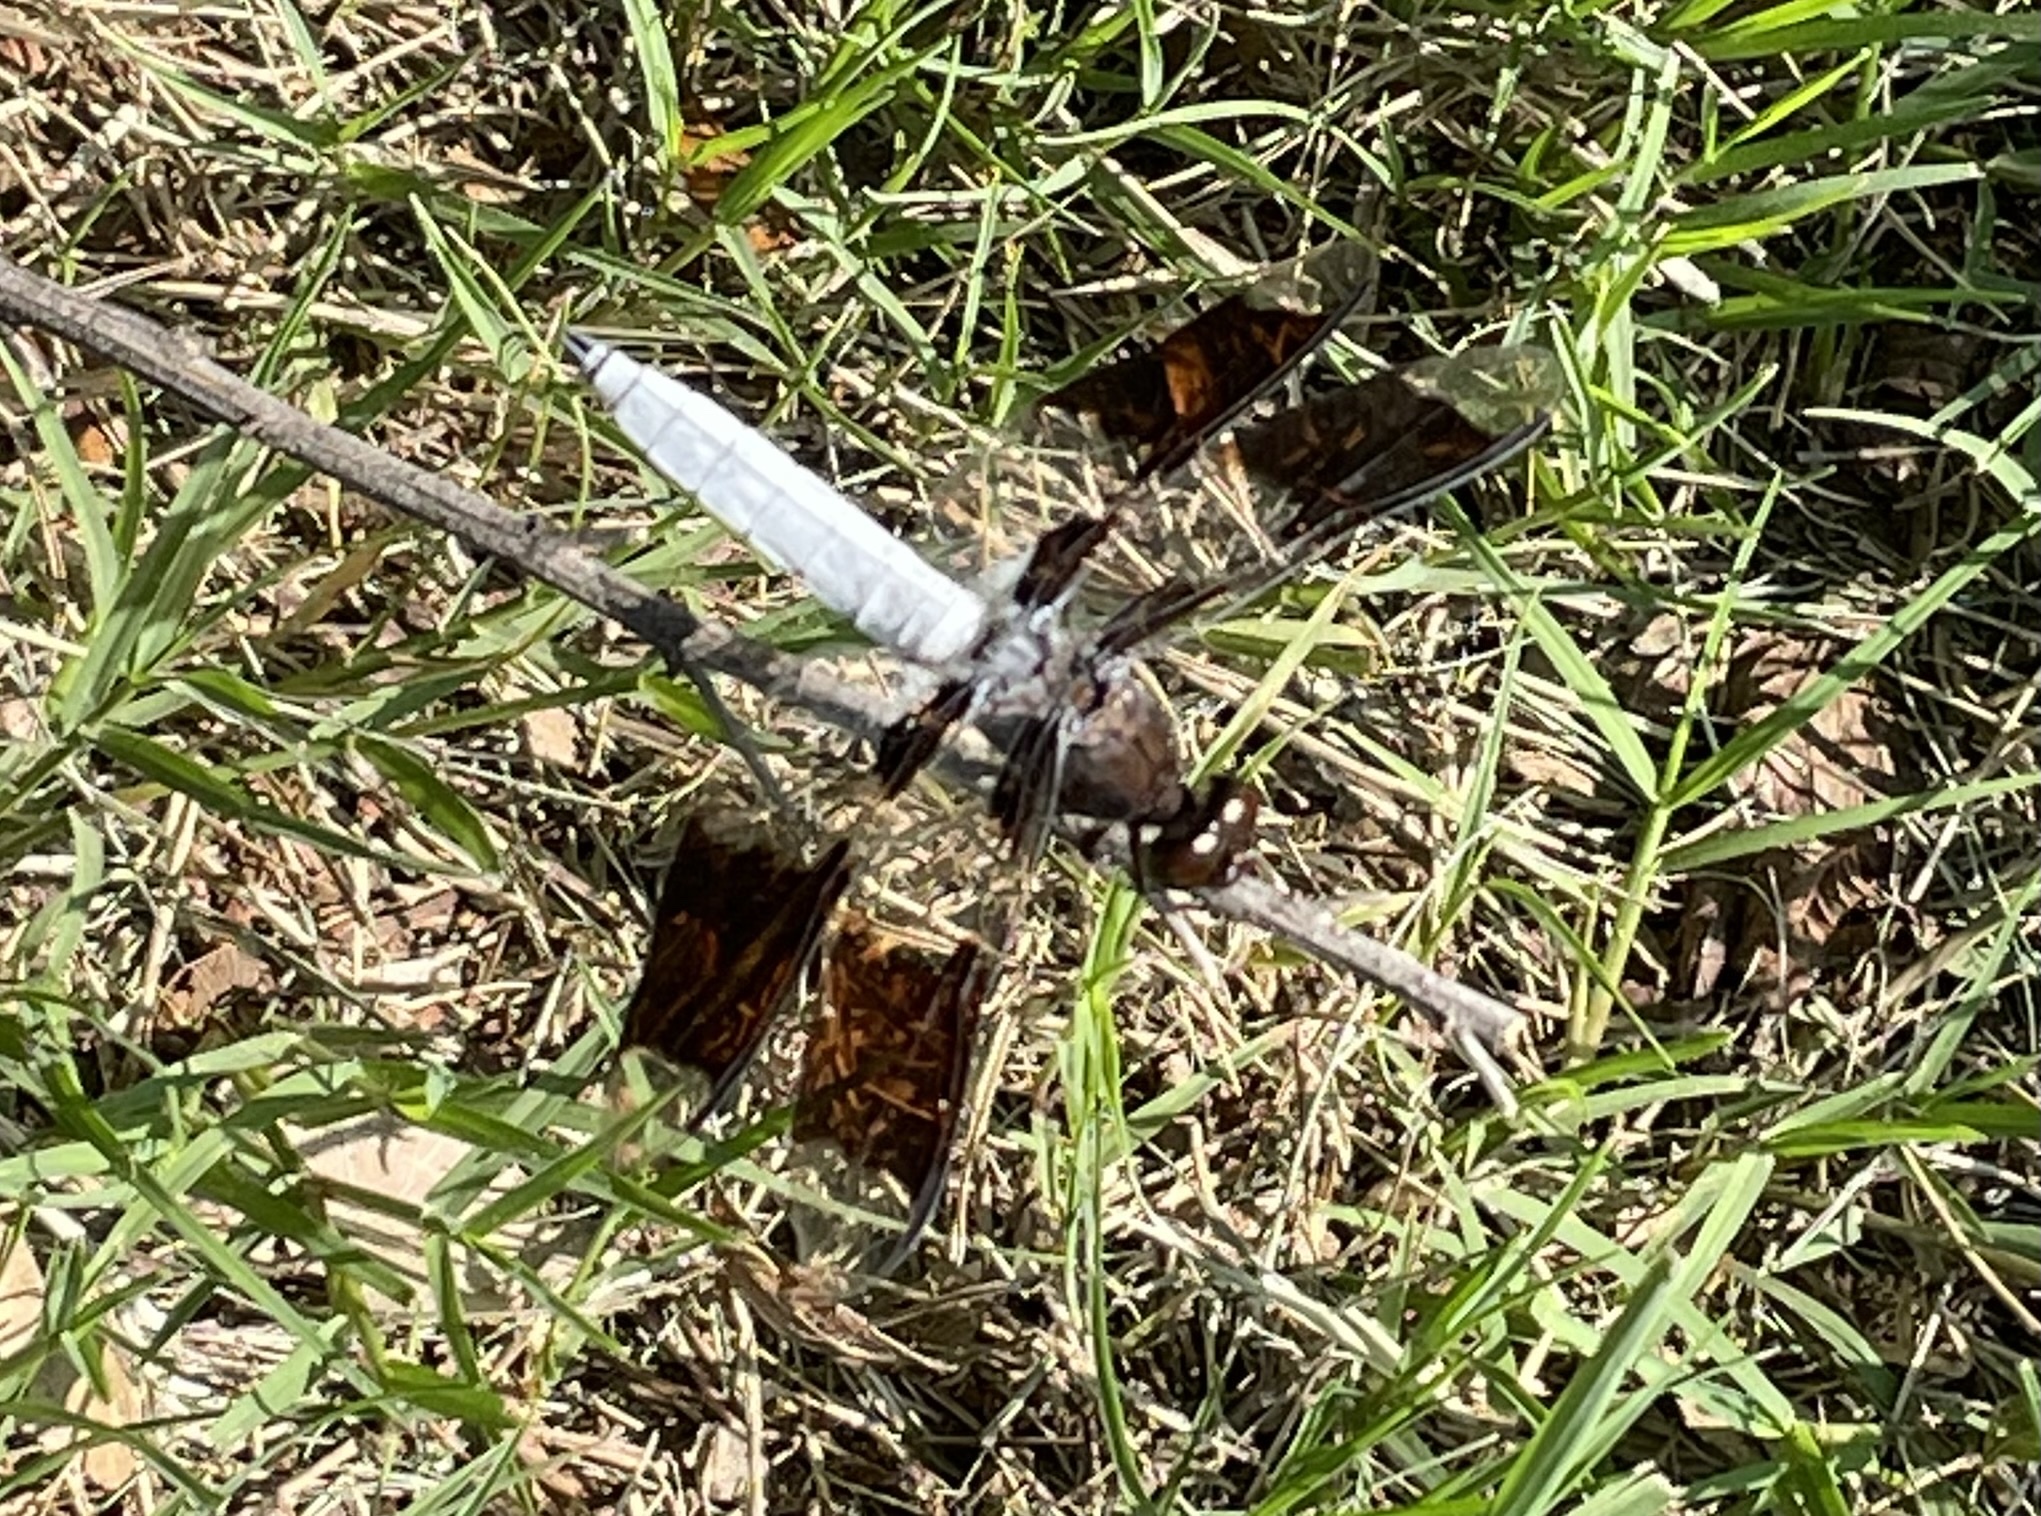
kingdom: Animalia
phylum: Arthropoda
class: Insecta
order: Odonata
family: Libellulidae
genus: Plathemis
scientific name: Plathemis lydia
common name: Common whitetail
